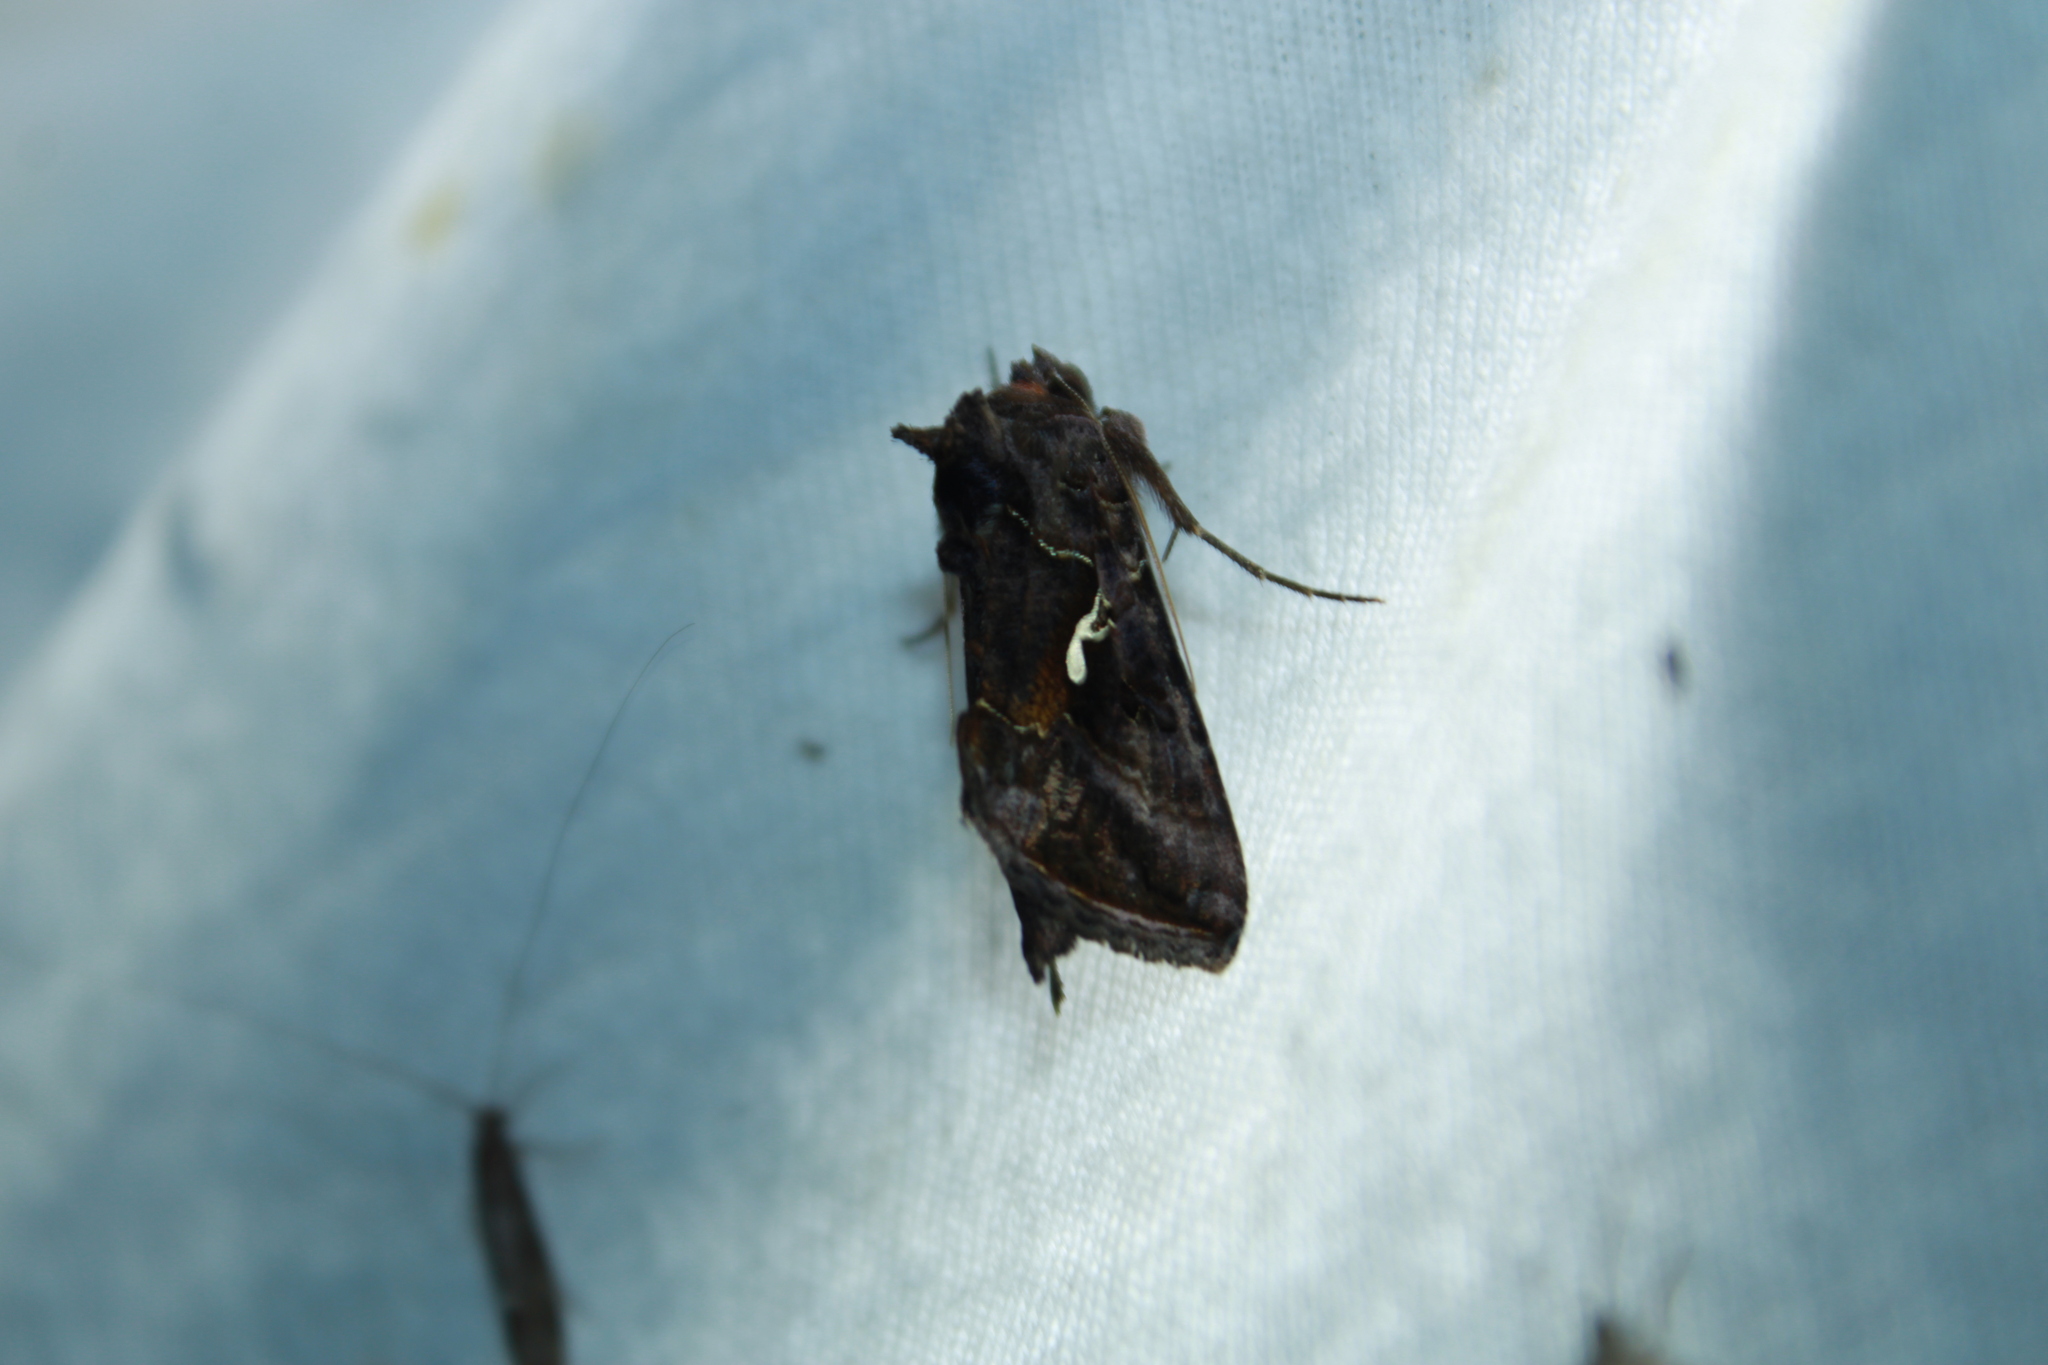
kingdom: Animalia
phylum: Arthropoda
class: Insecta
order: Lepidoptera
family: Noctuidae
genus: Autographa
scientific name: Autographa precationis
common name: Common looper moth
